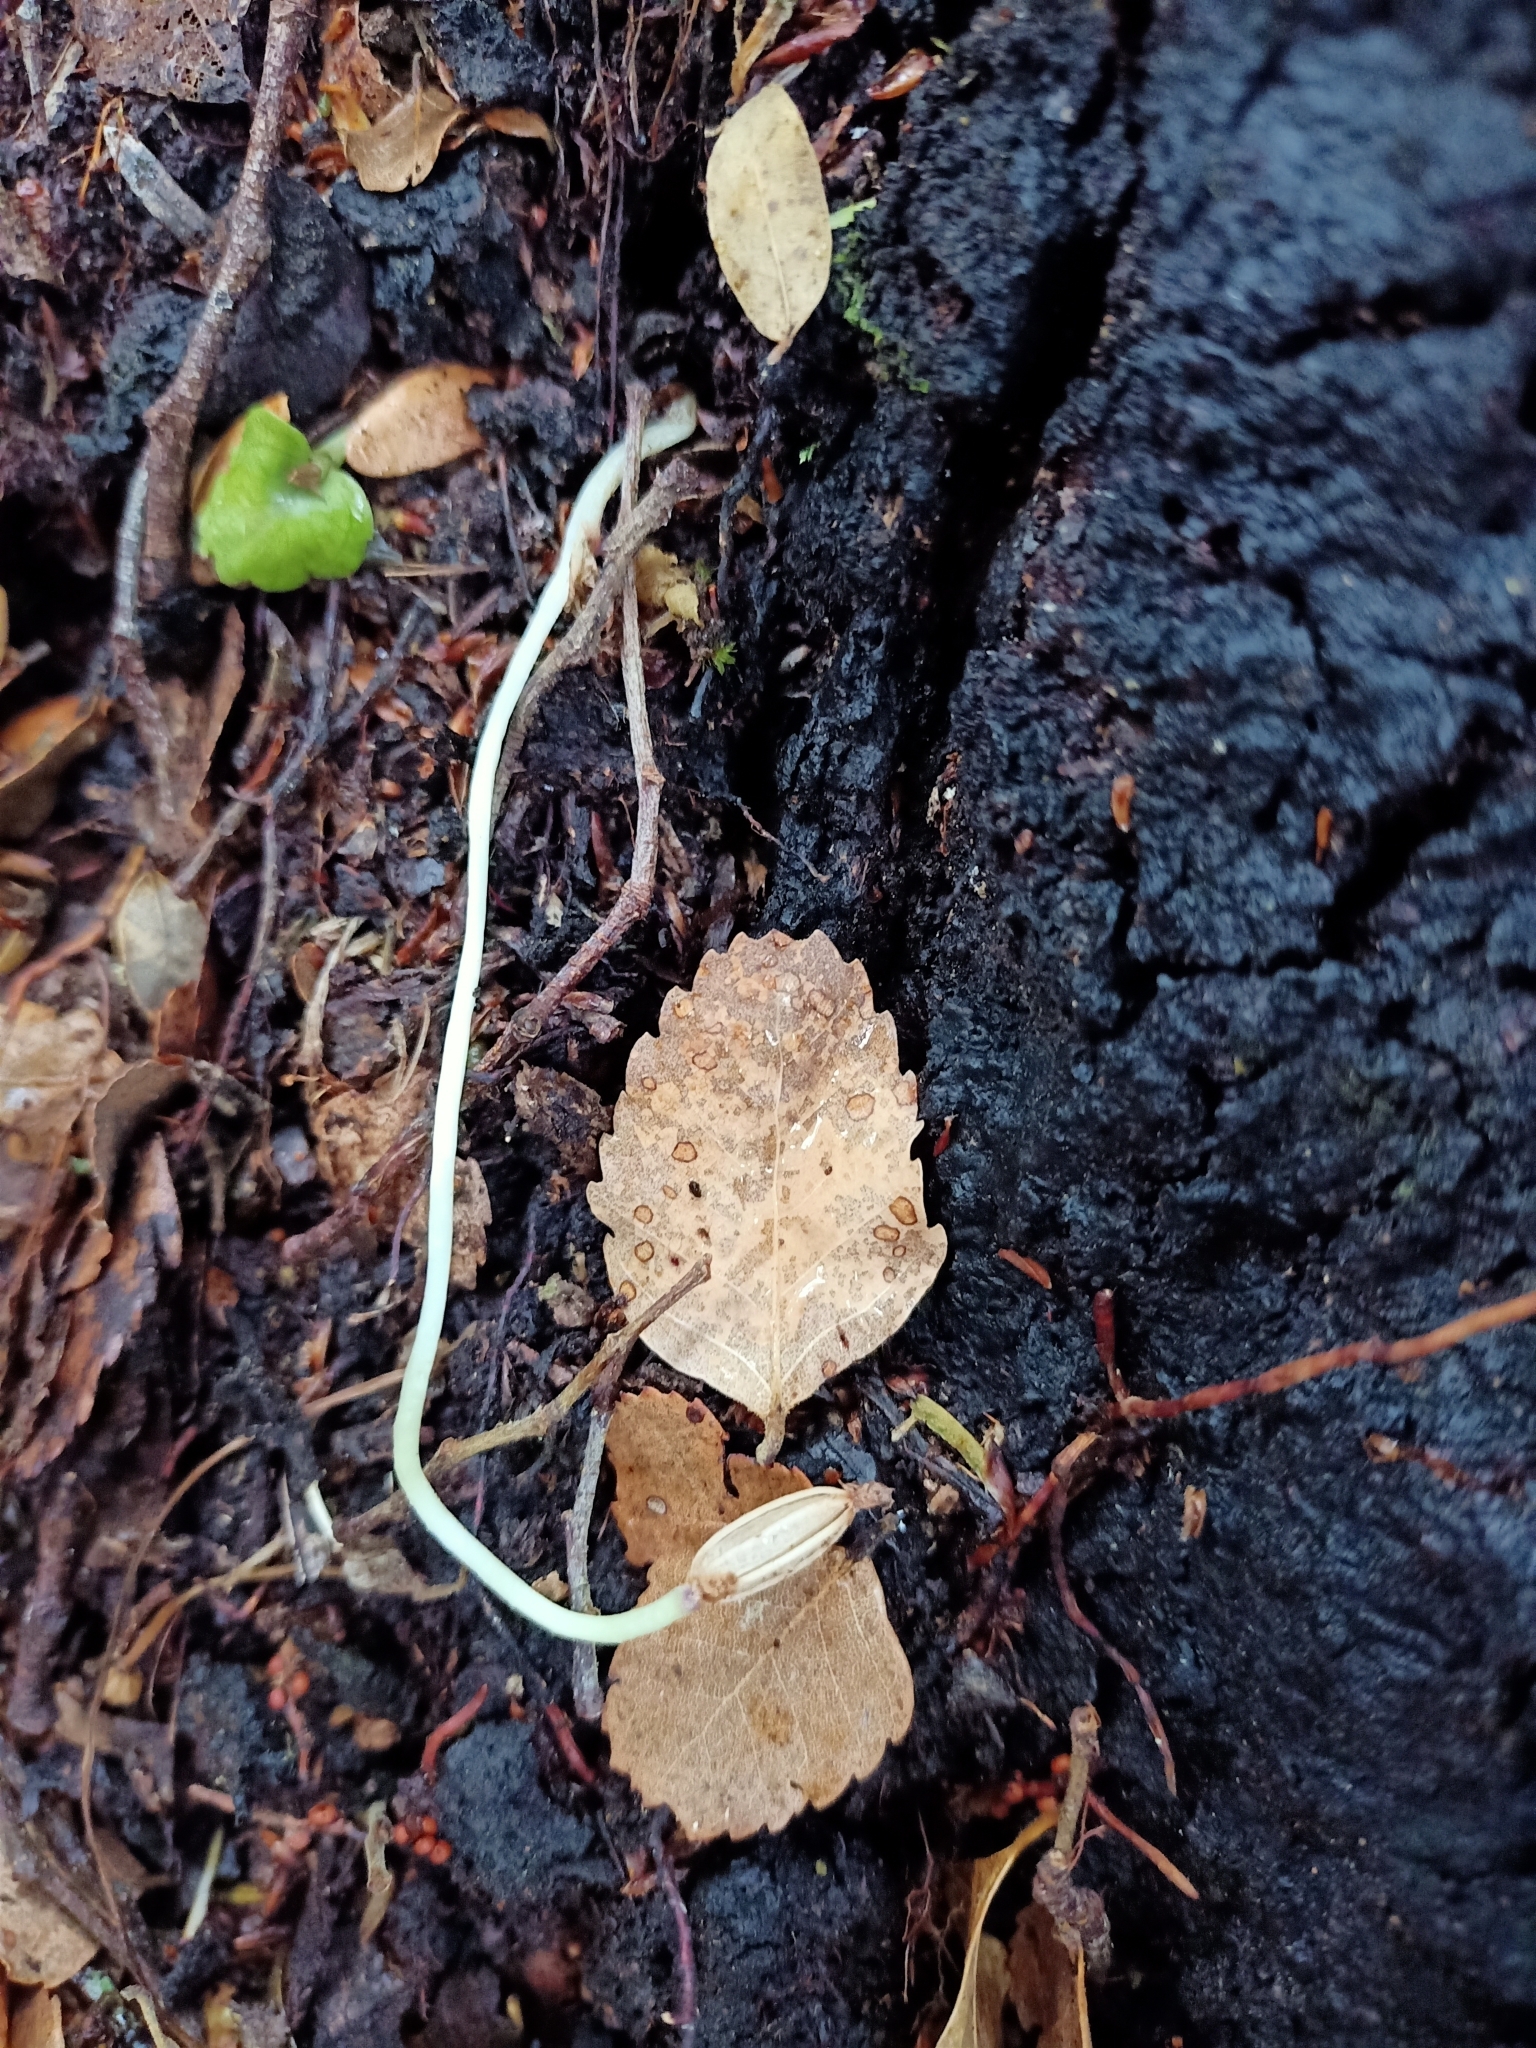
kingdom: Plantae
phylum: Tracheophyta
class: Liliopsida
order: Asparagales
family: Orchidaceae
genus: Corybas
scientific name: Corybas cheesemanii
